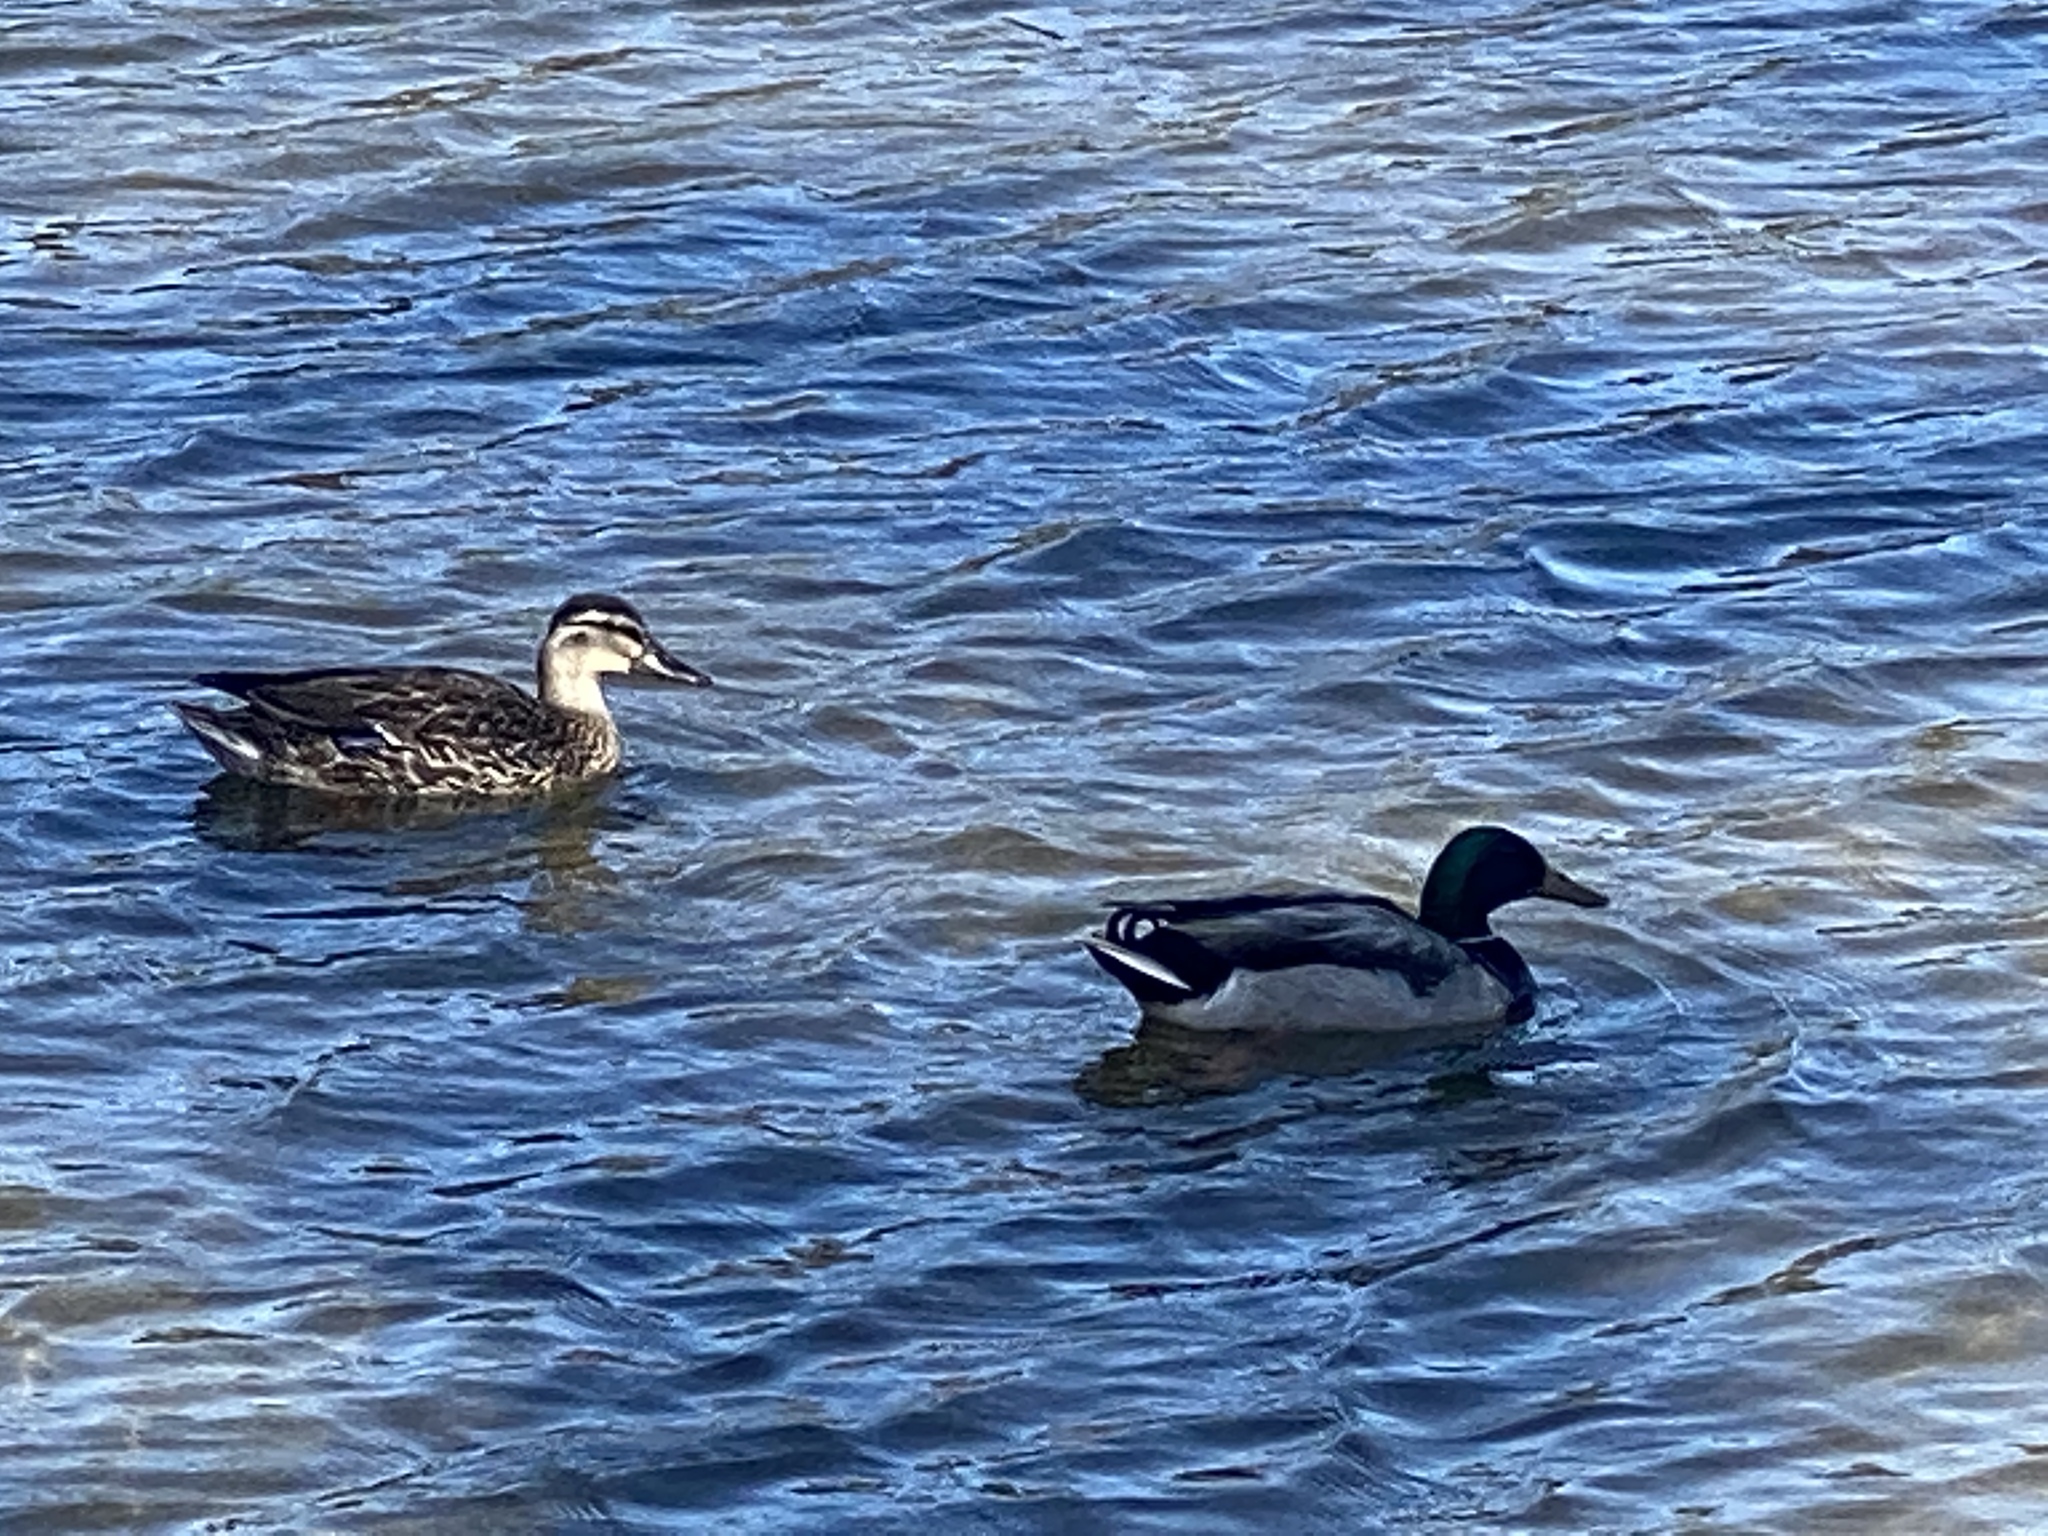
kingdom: Animalia
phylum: Chordata
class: Aves
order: Anseriformes
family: Anatidae
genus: Anas
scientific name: Anas platyrhynchos
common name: Mallard
